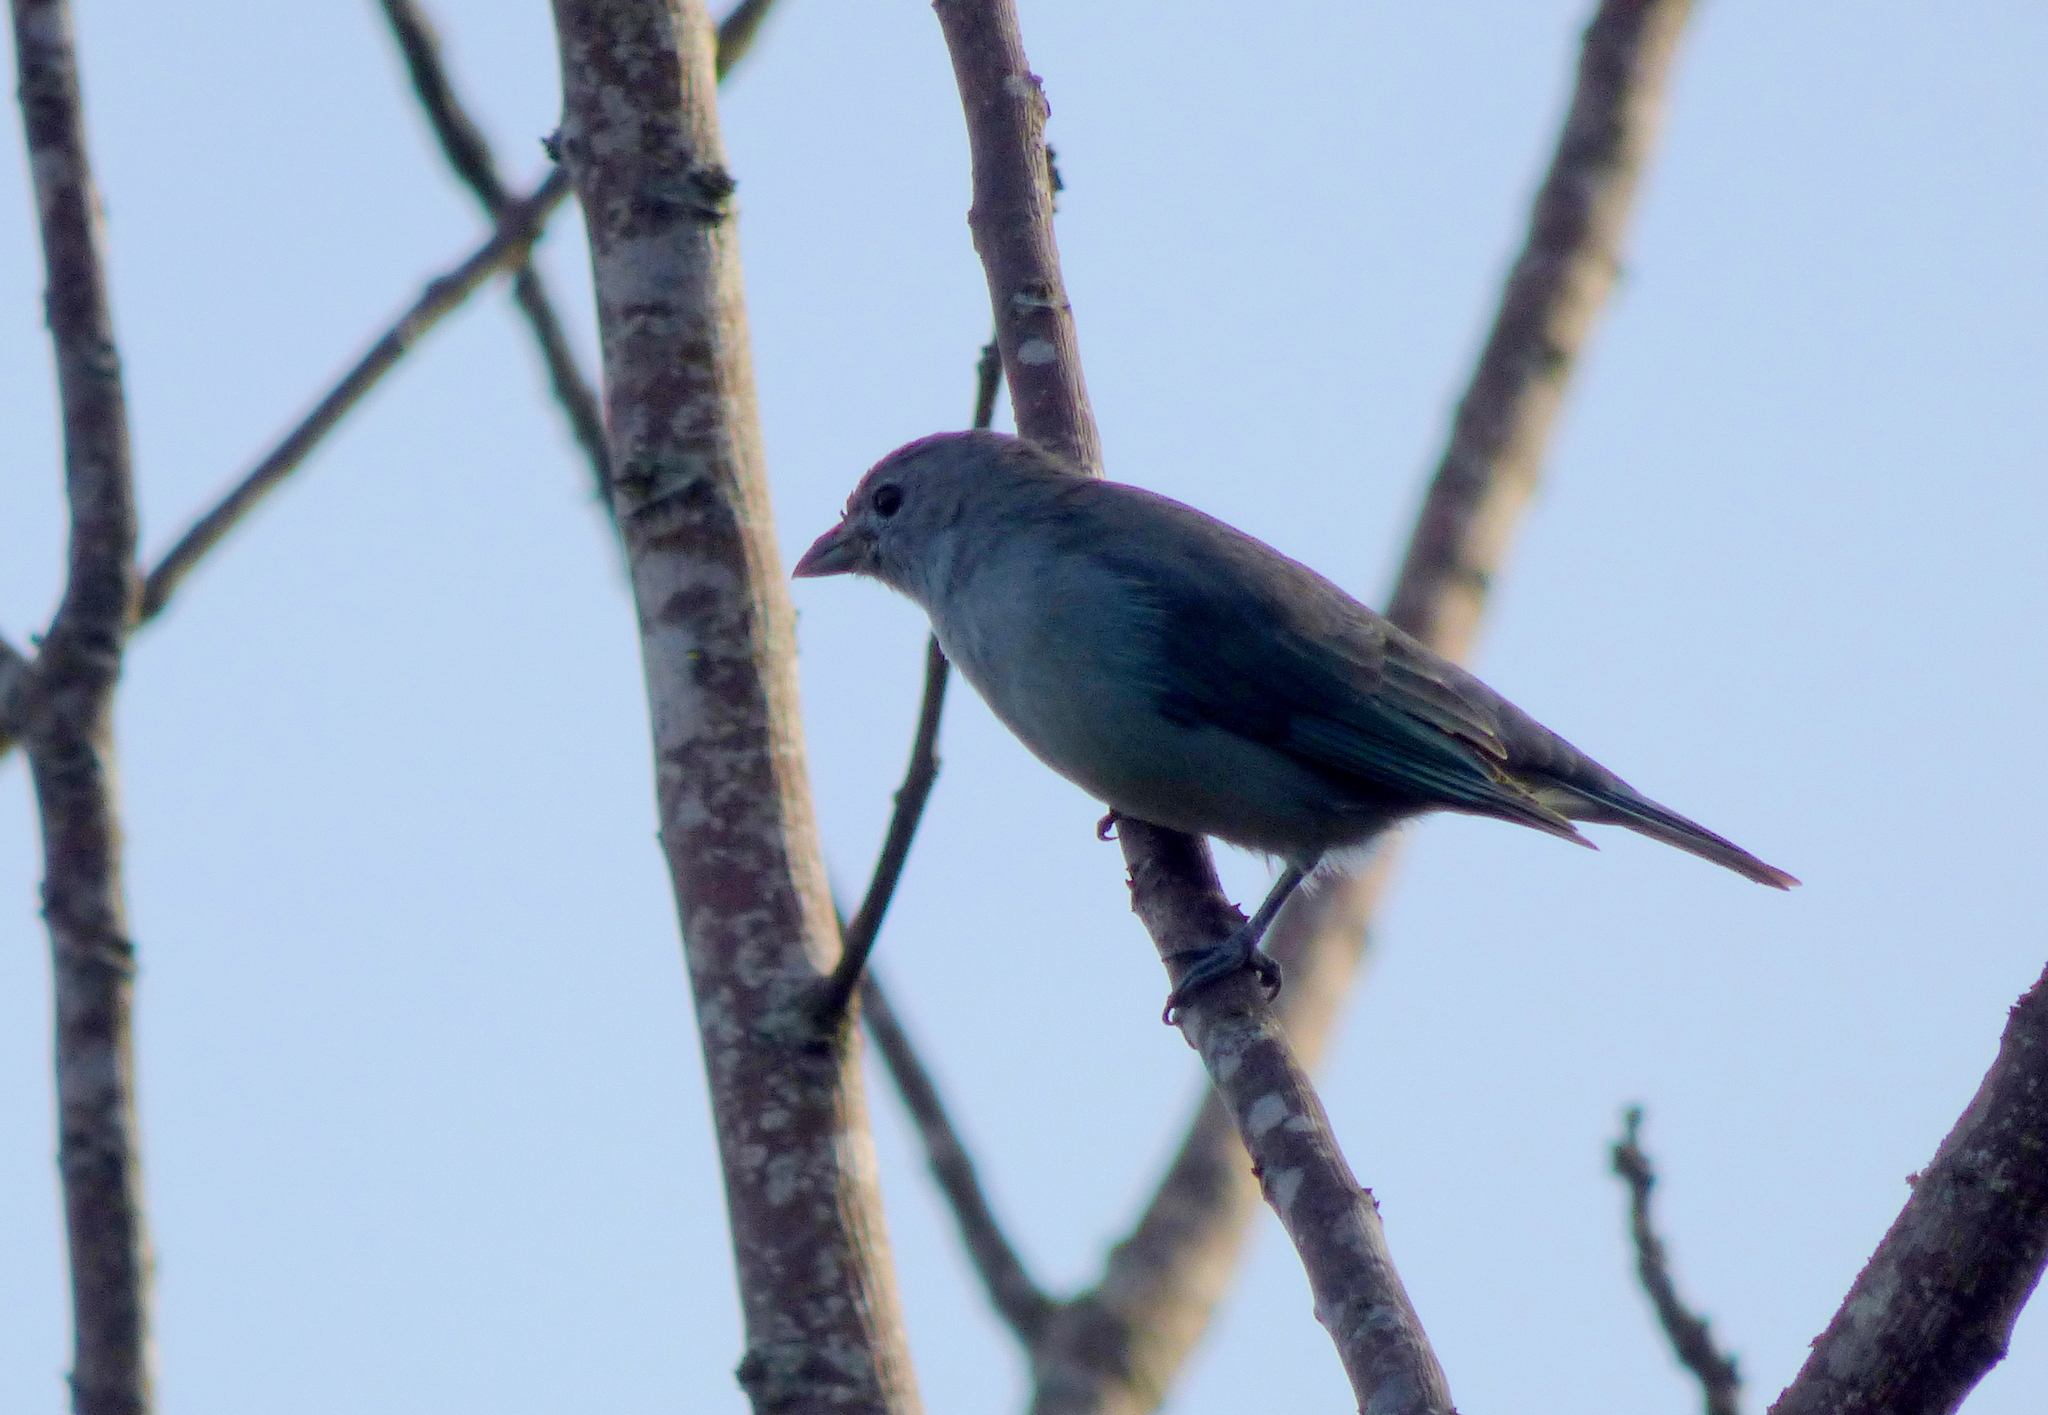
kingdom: Animalia
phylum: Chordata
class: Aves
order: Passeriformes
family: Thraupidae
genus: Thraupis
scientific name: Thraupis sayaca
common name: Sayaca tanager
